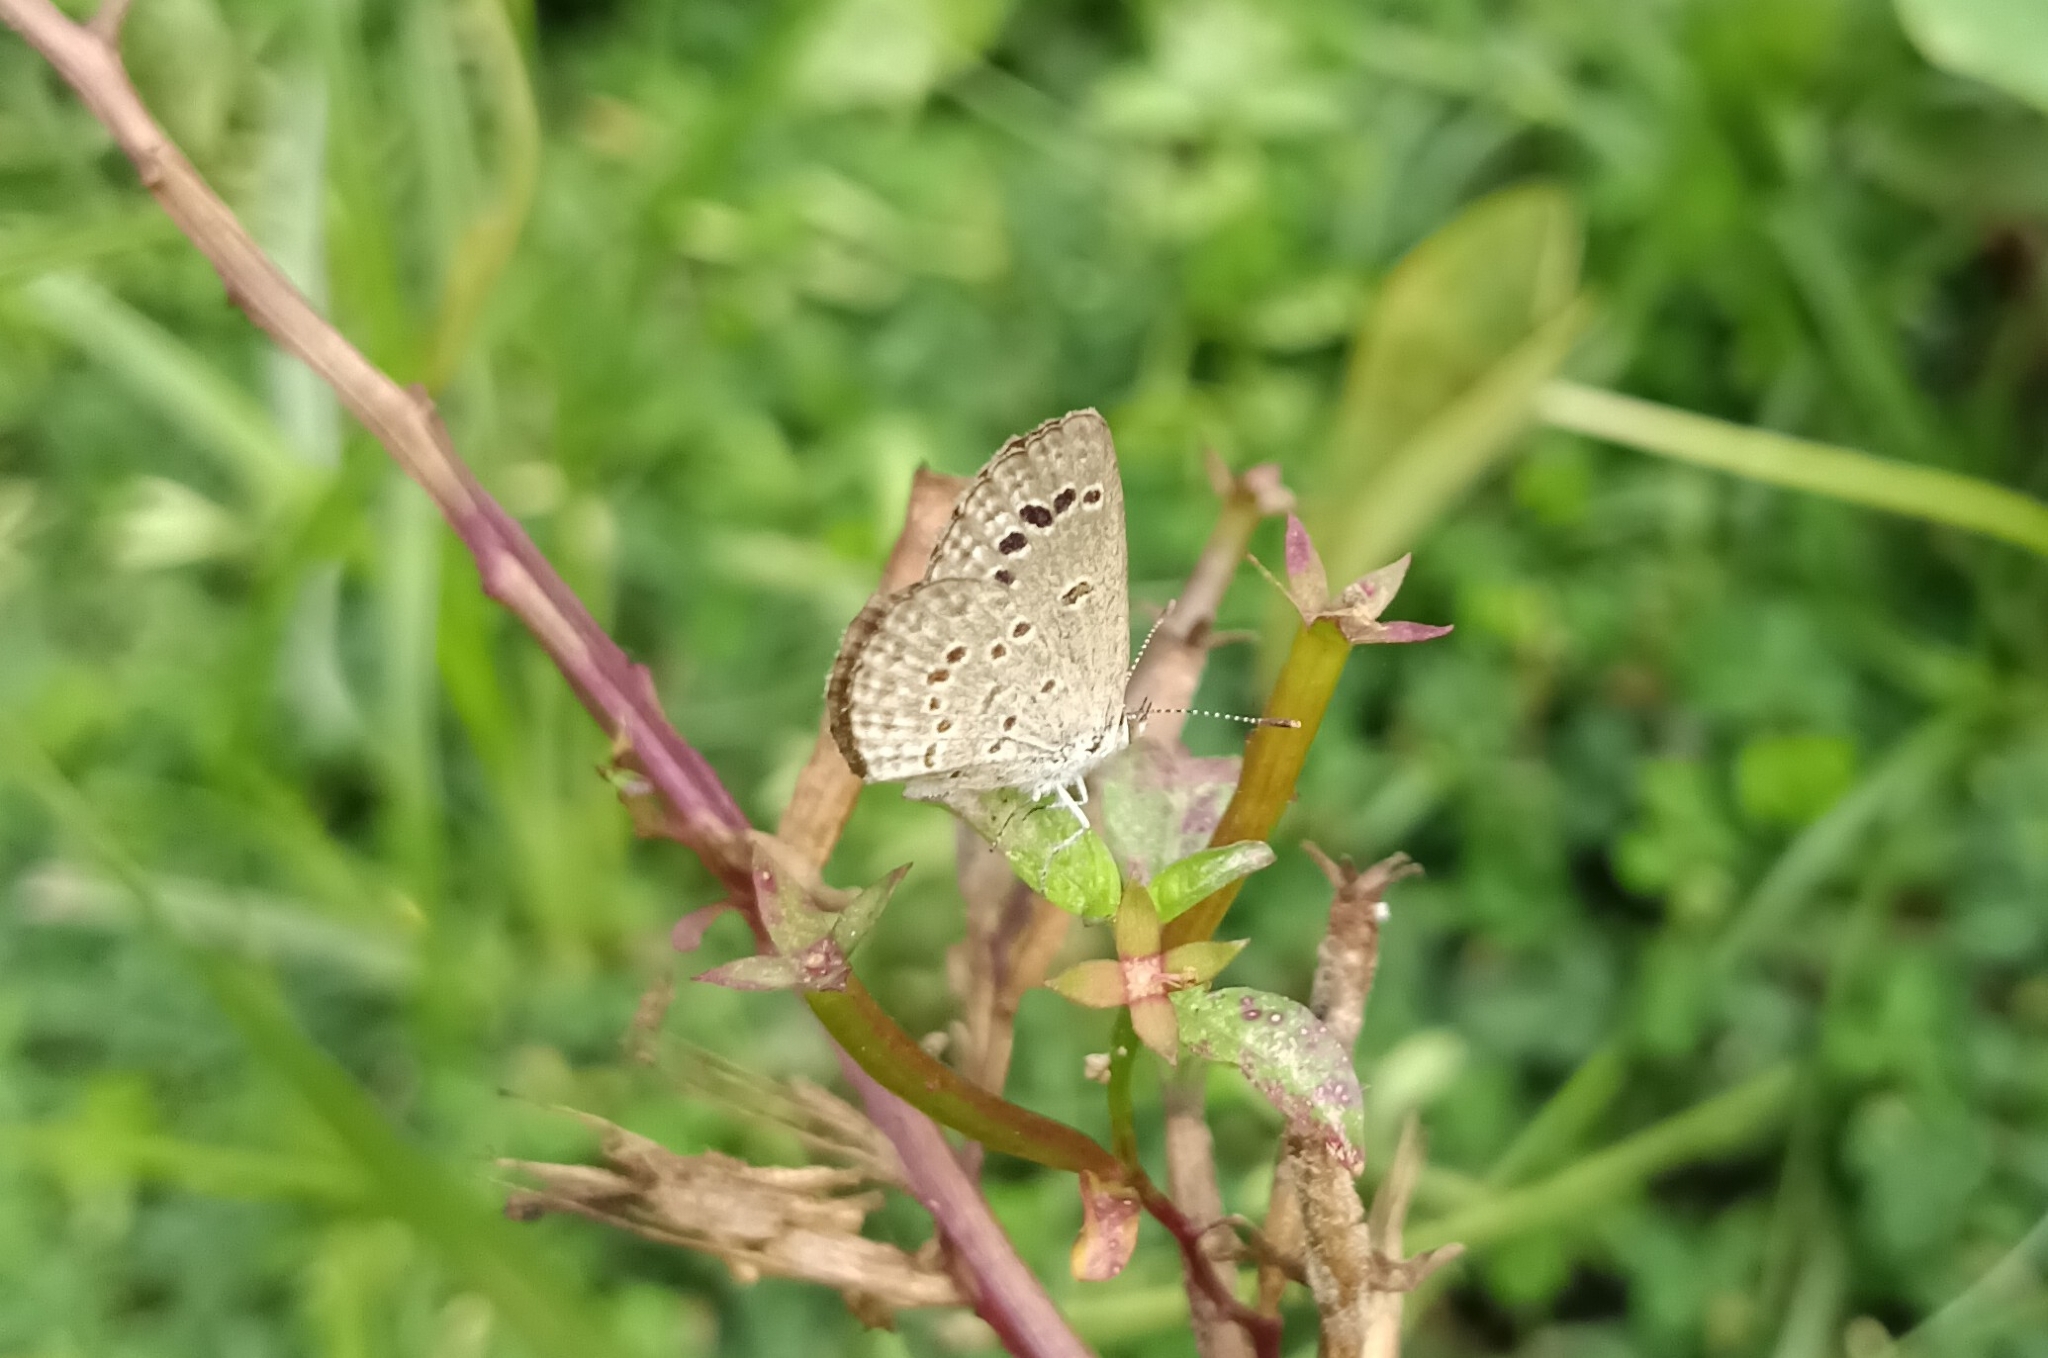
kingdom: Animalia
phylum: Arthropoda
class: Insecta
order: Lepidoptera
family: Lycaenidae
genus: Zizina
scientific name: Zizina otis
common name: Lesser grass blue
